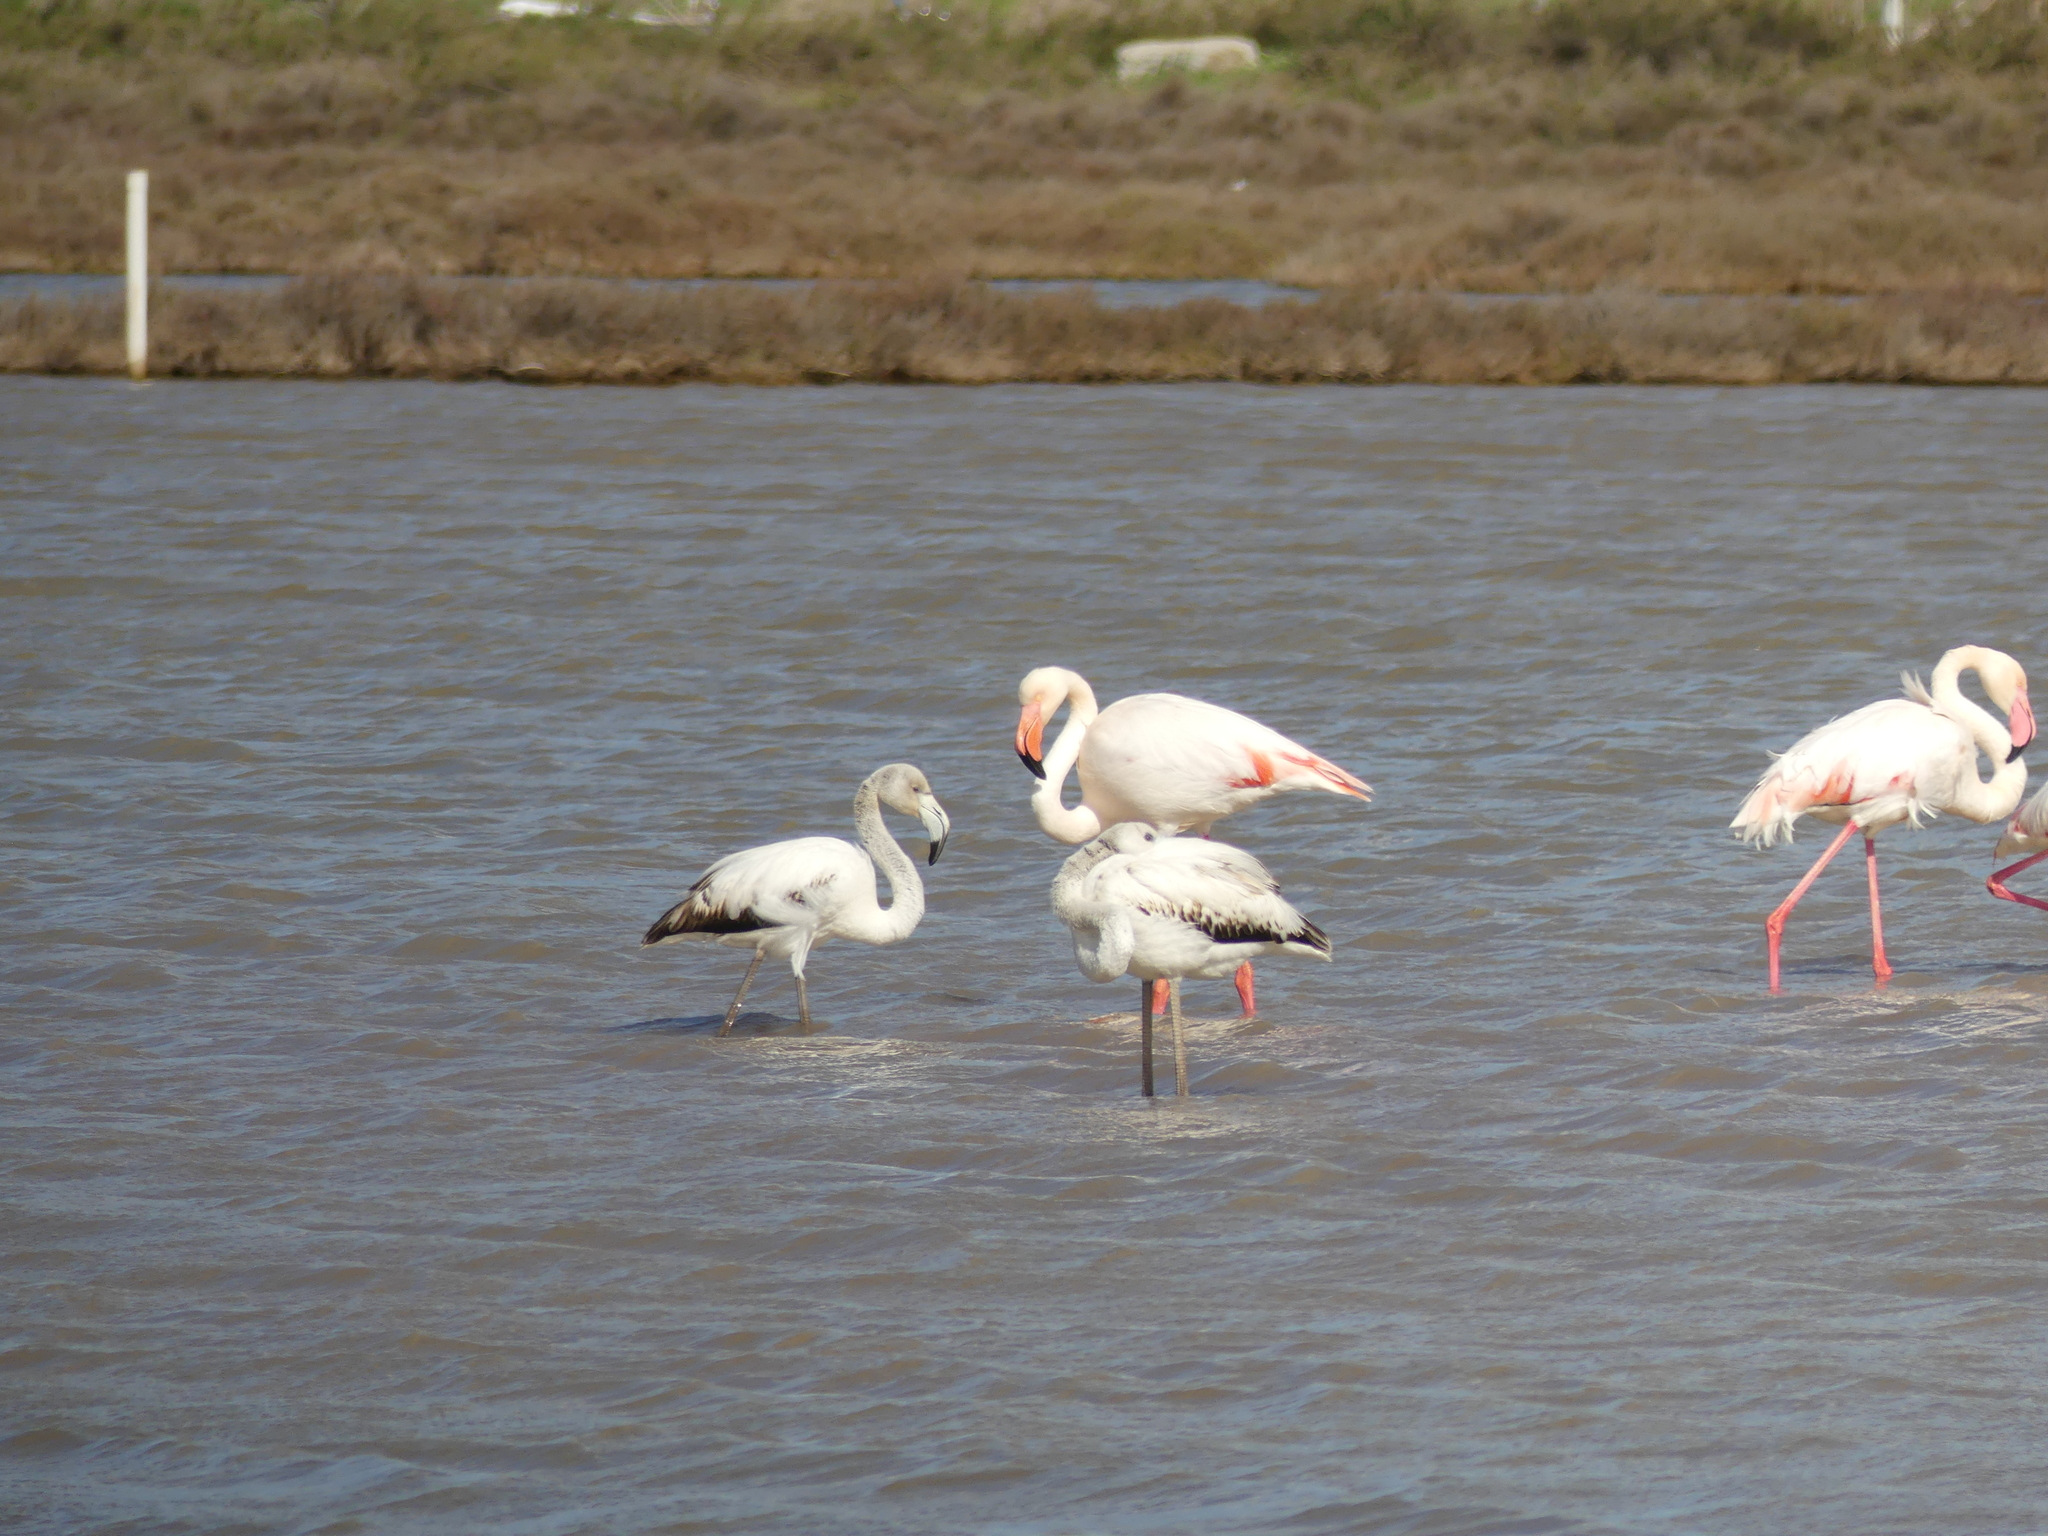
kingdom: Animalia
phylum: Chordata
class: Aves
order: Phoenicopteriformes
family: Phoenicopteridae
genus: Phoenicopterus
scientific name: Phoenicopterus roseus
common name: Greater flamingo
